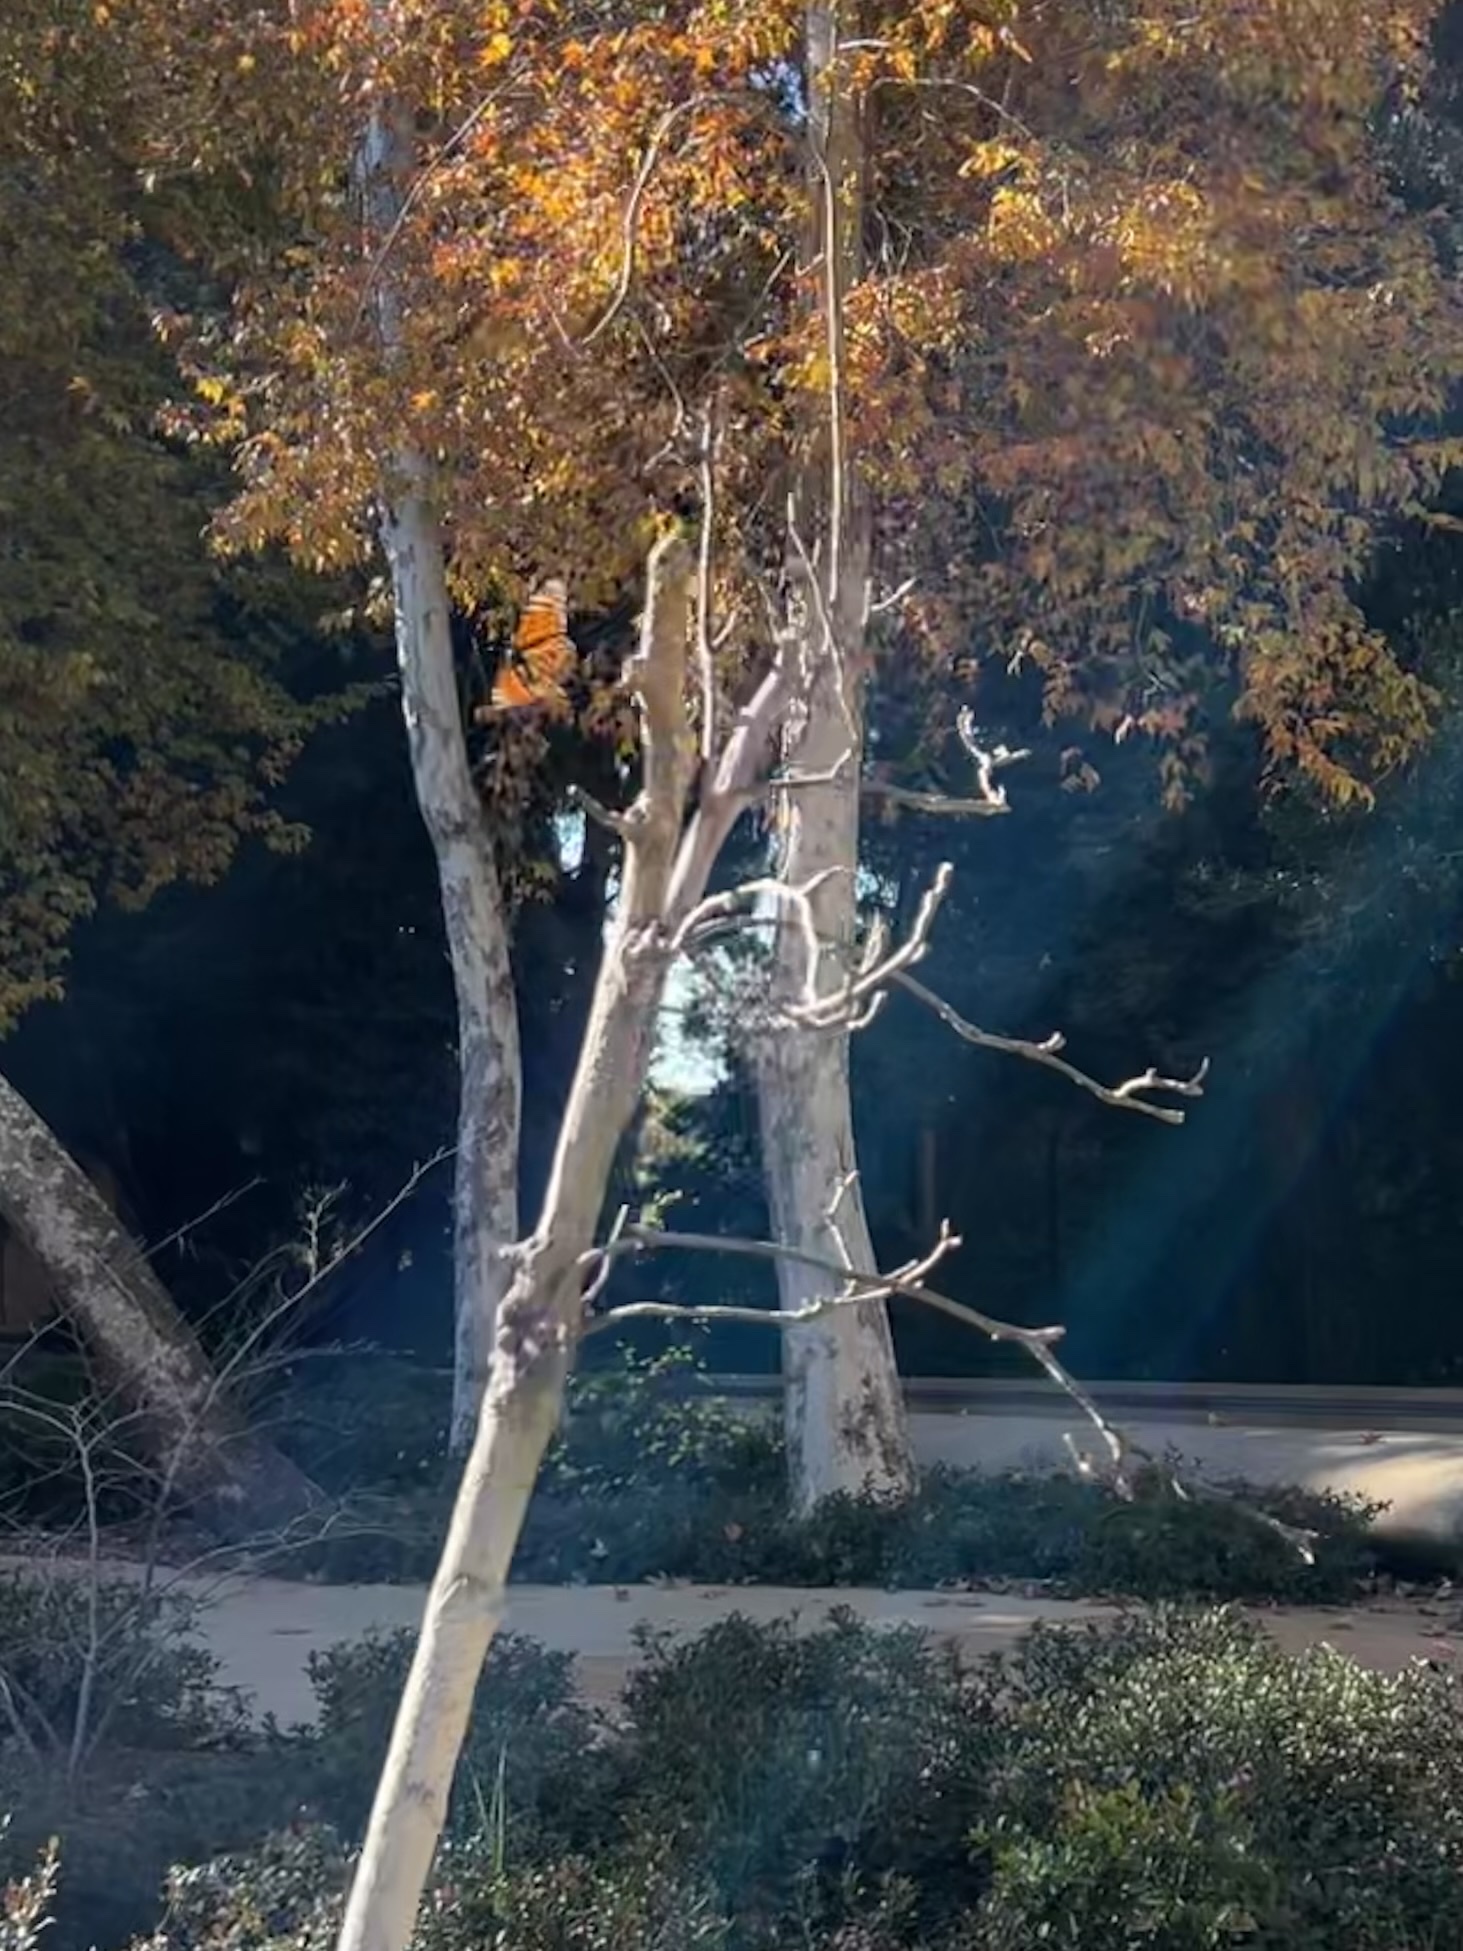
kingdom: Animalia
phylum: Arthropoda
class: Insecta
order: Lepidoptera
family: Nymphalidae
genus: Danaus
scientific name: Danaus plexippus
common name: Monarch
